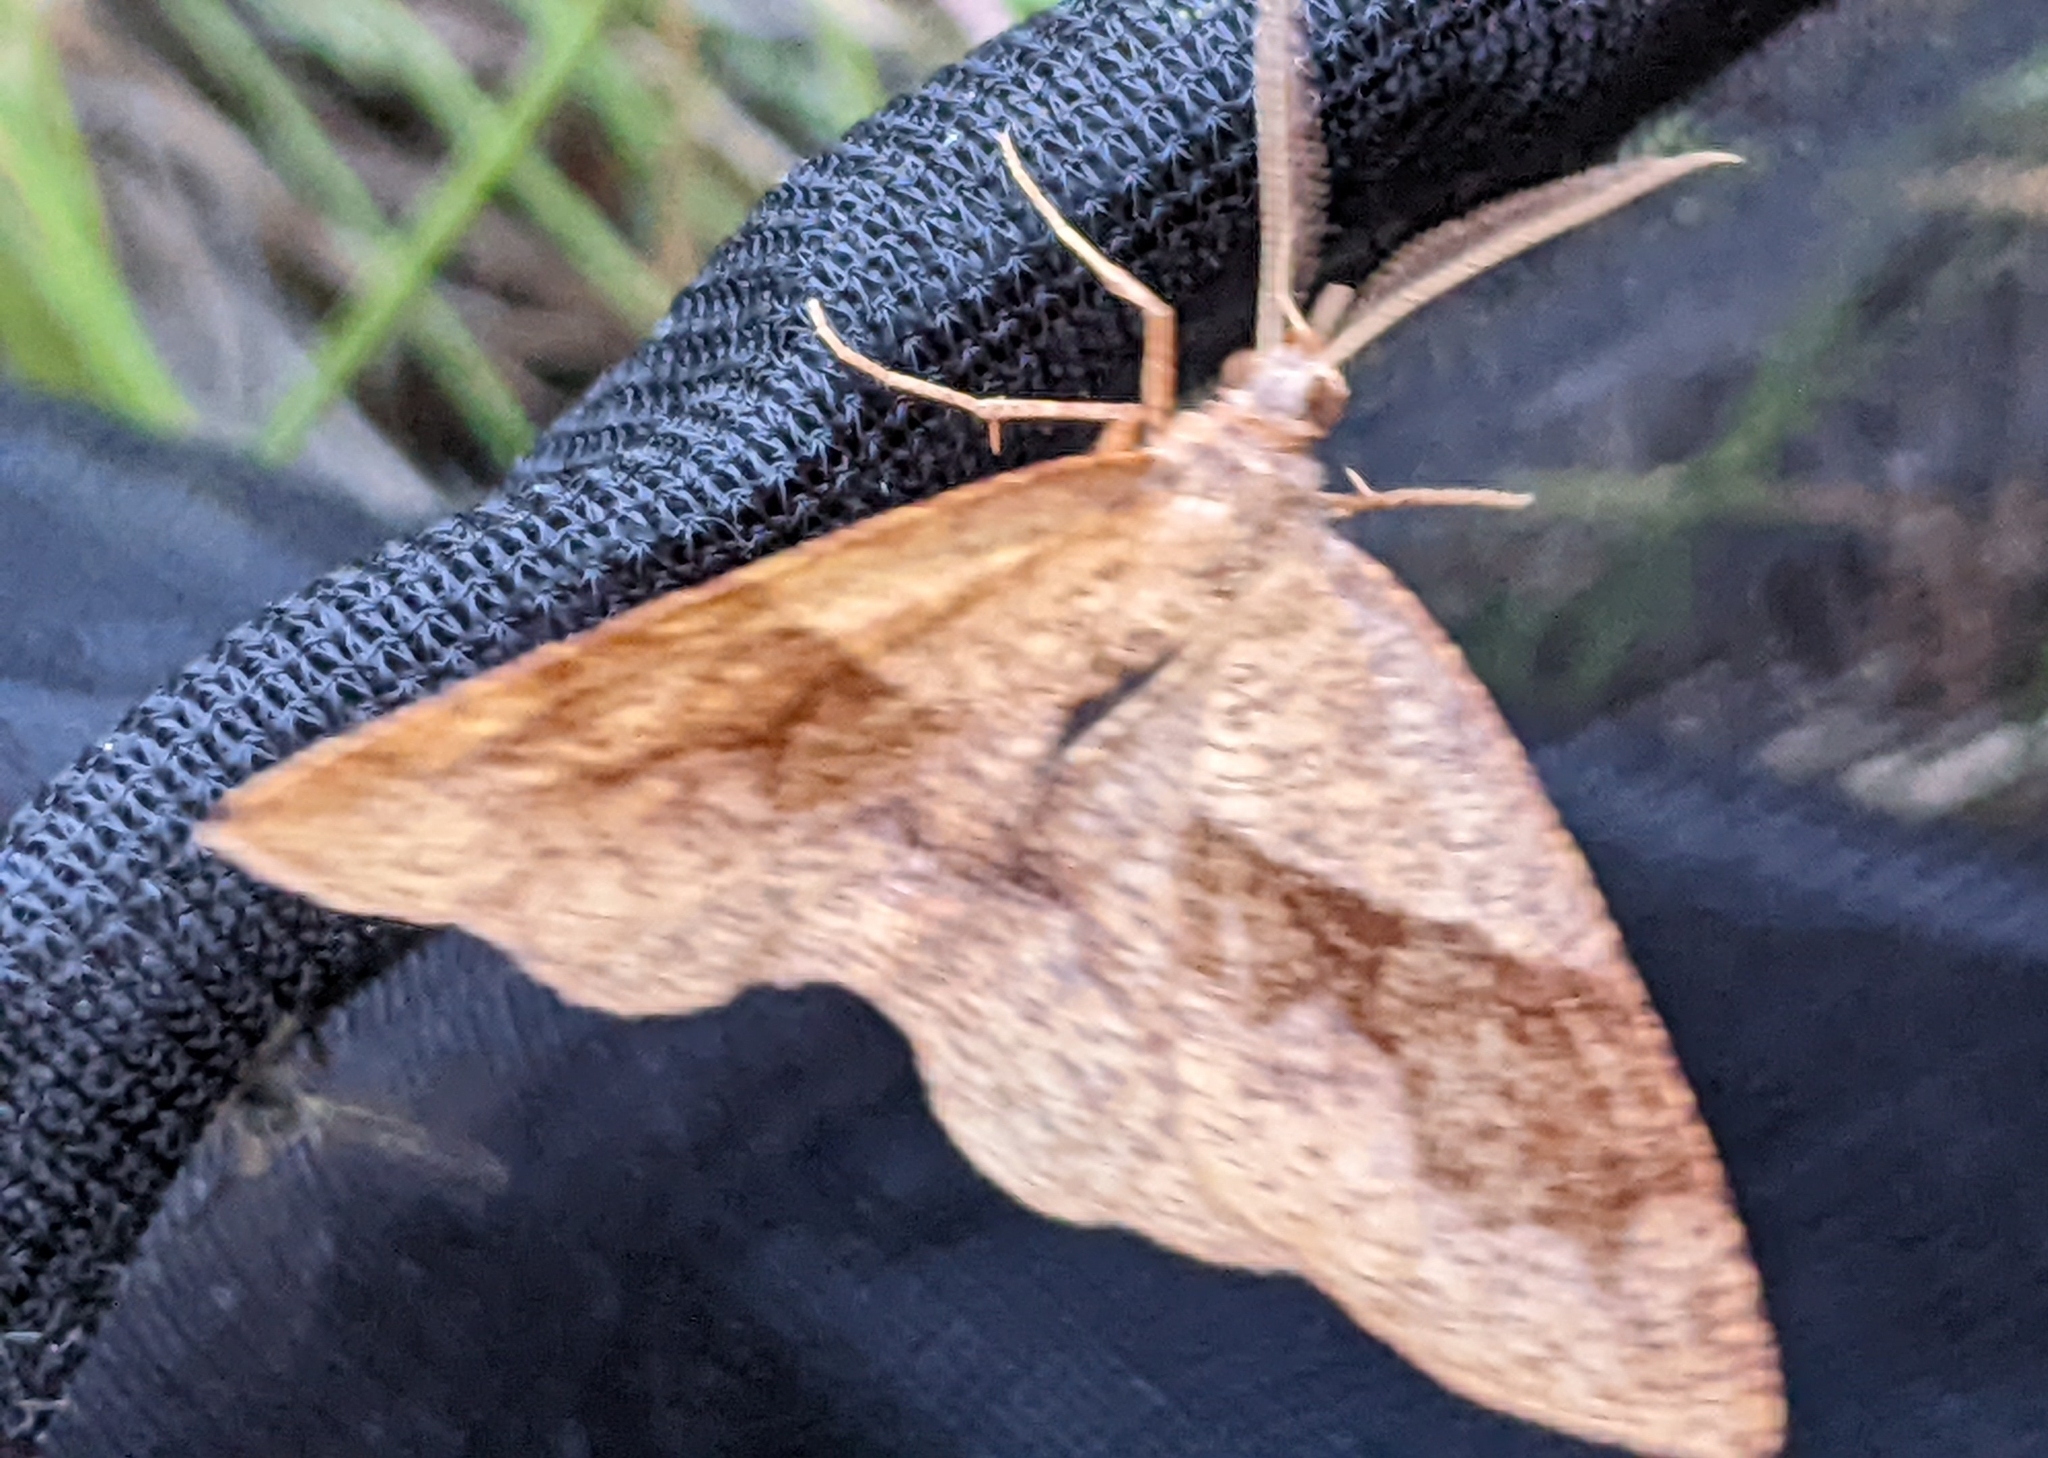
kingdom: Animalia
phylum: Arthropoda
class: Insecta
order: Lepidoptera
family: Geometridae
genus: Plagodis
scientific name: Plagodis pulveraria
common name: Barred umber
